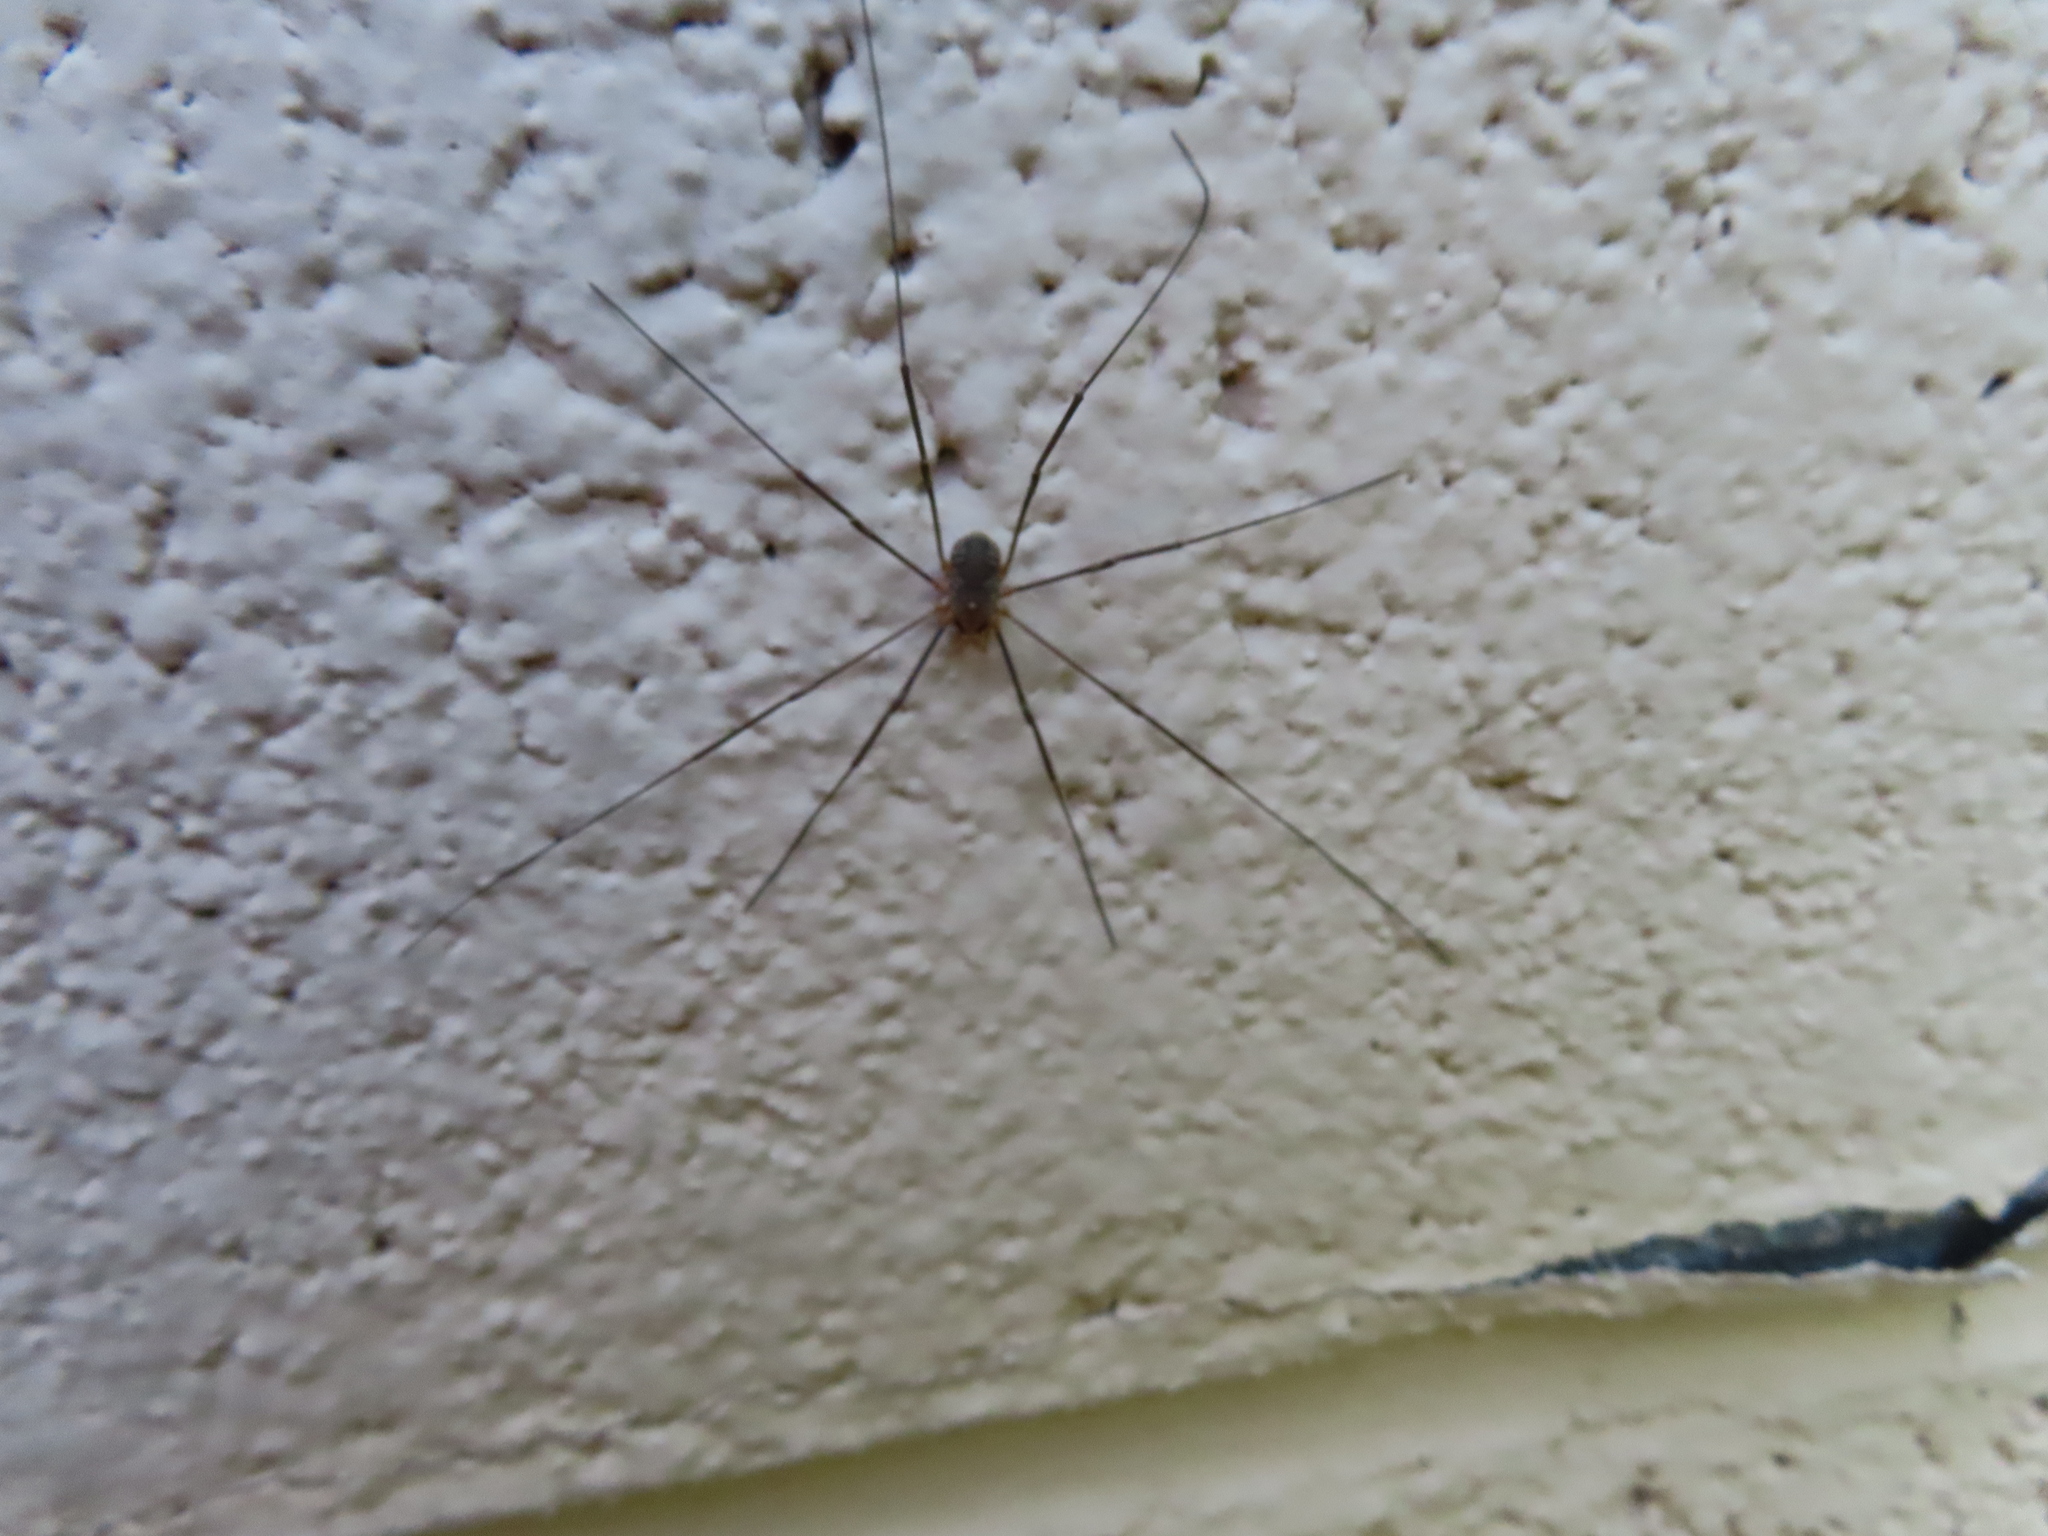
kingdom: Animalia
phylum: Arthropoda
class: Arachnida
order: Opiliones
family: Phalangiidae
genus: Phalangium
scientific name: Phalangium opilio
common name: Daddy longleg
